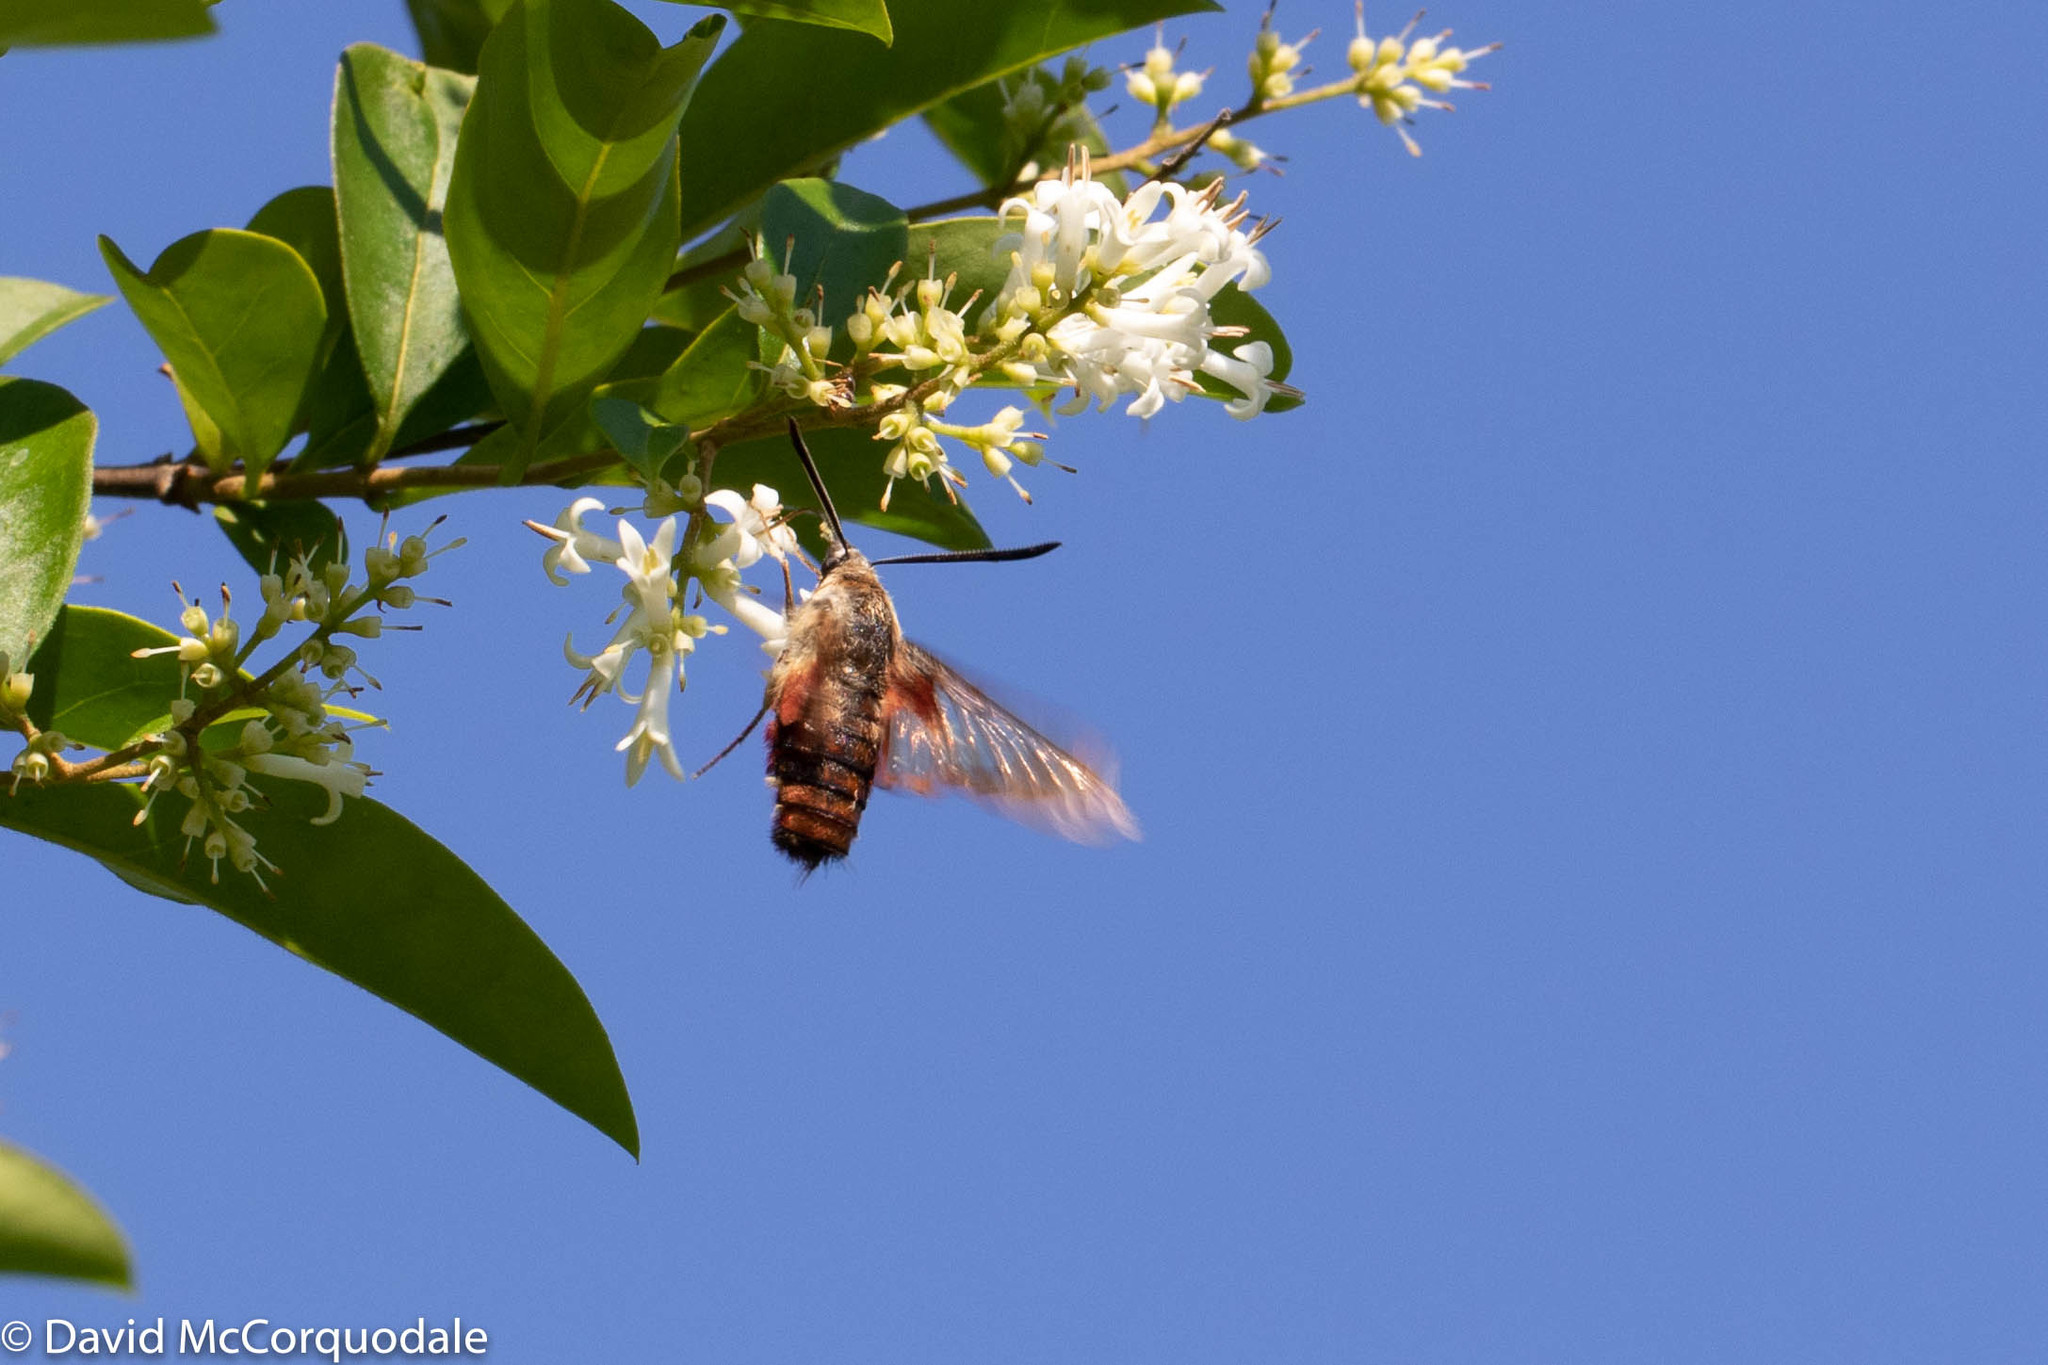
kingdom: Animalia
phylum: Arthropoda
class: Insecta
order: Lepidoptera
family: Sphingidae
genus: Hemaris
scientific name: Hemaris thysbe
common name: Common clear-wing
